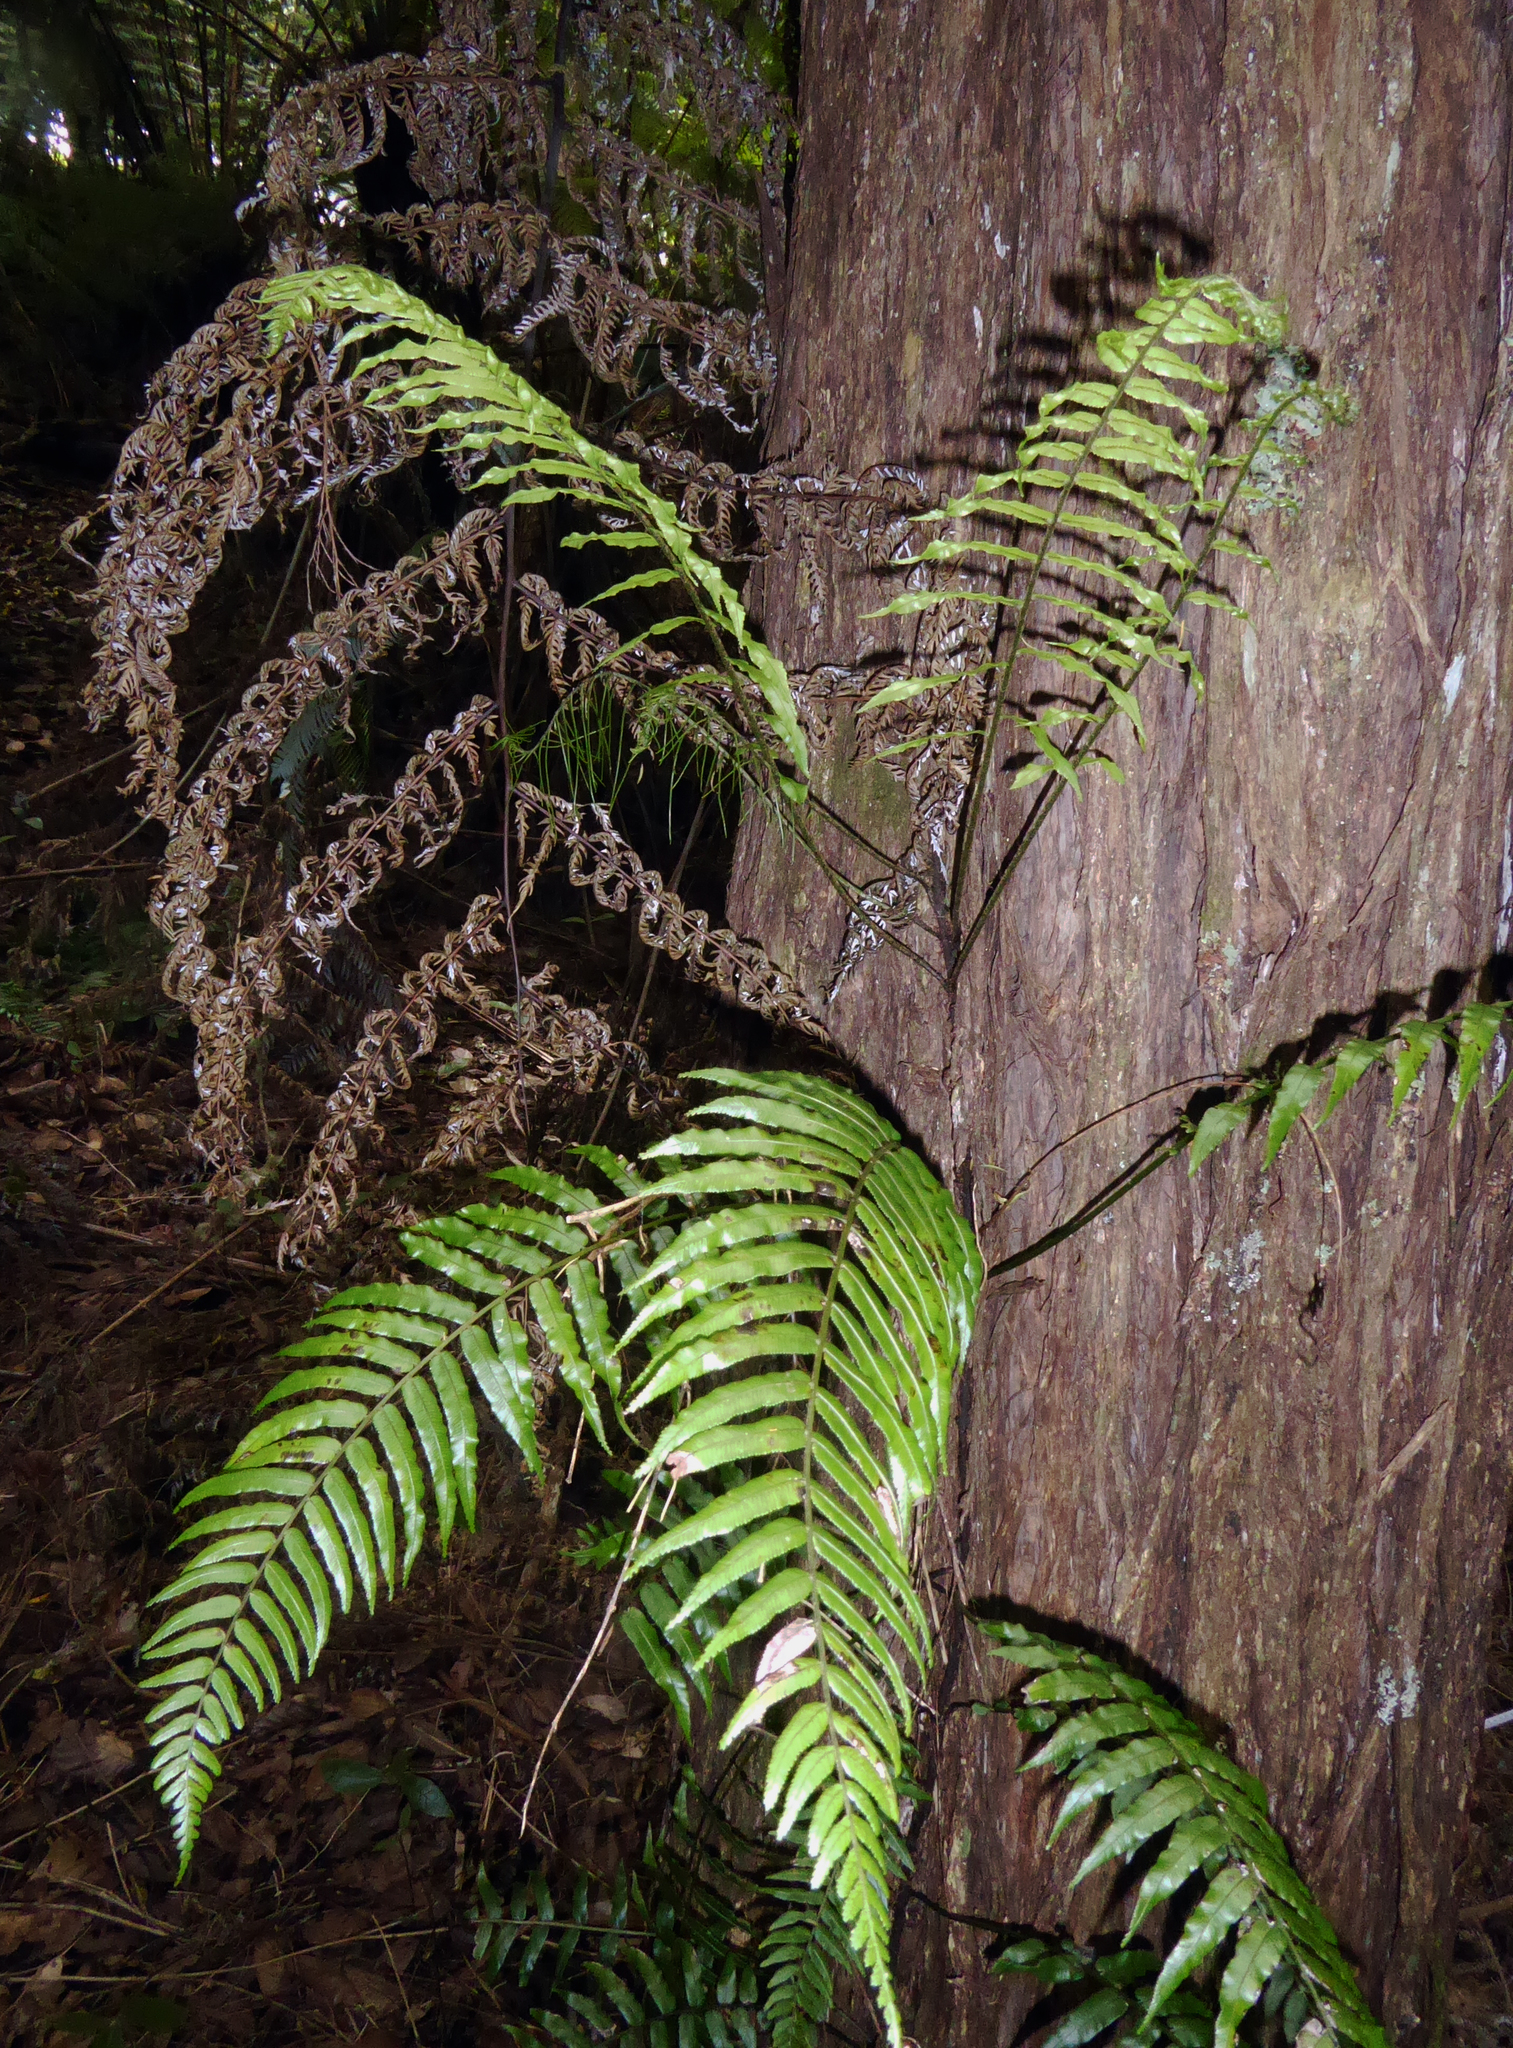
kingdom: Plantae
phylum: Tracheophyta
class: Polypodiopsida
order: Polypodiales
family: Blechnaceae
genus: Icarus
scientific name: Icarus filiformis
